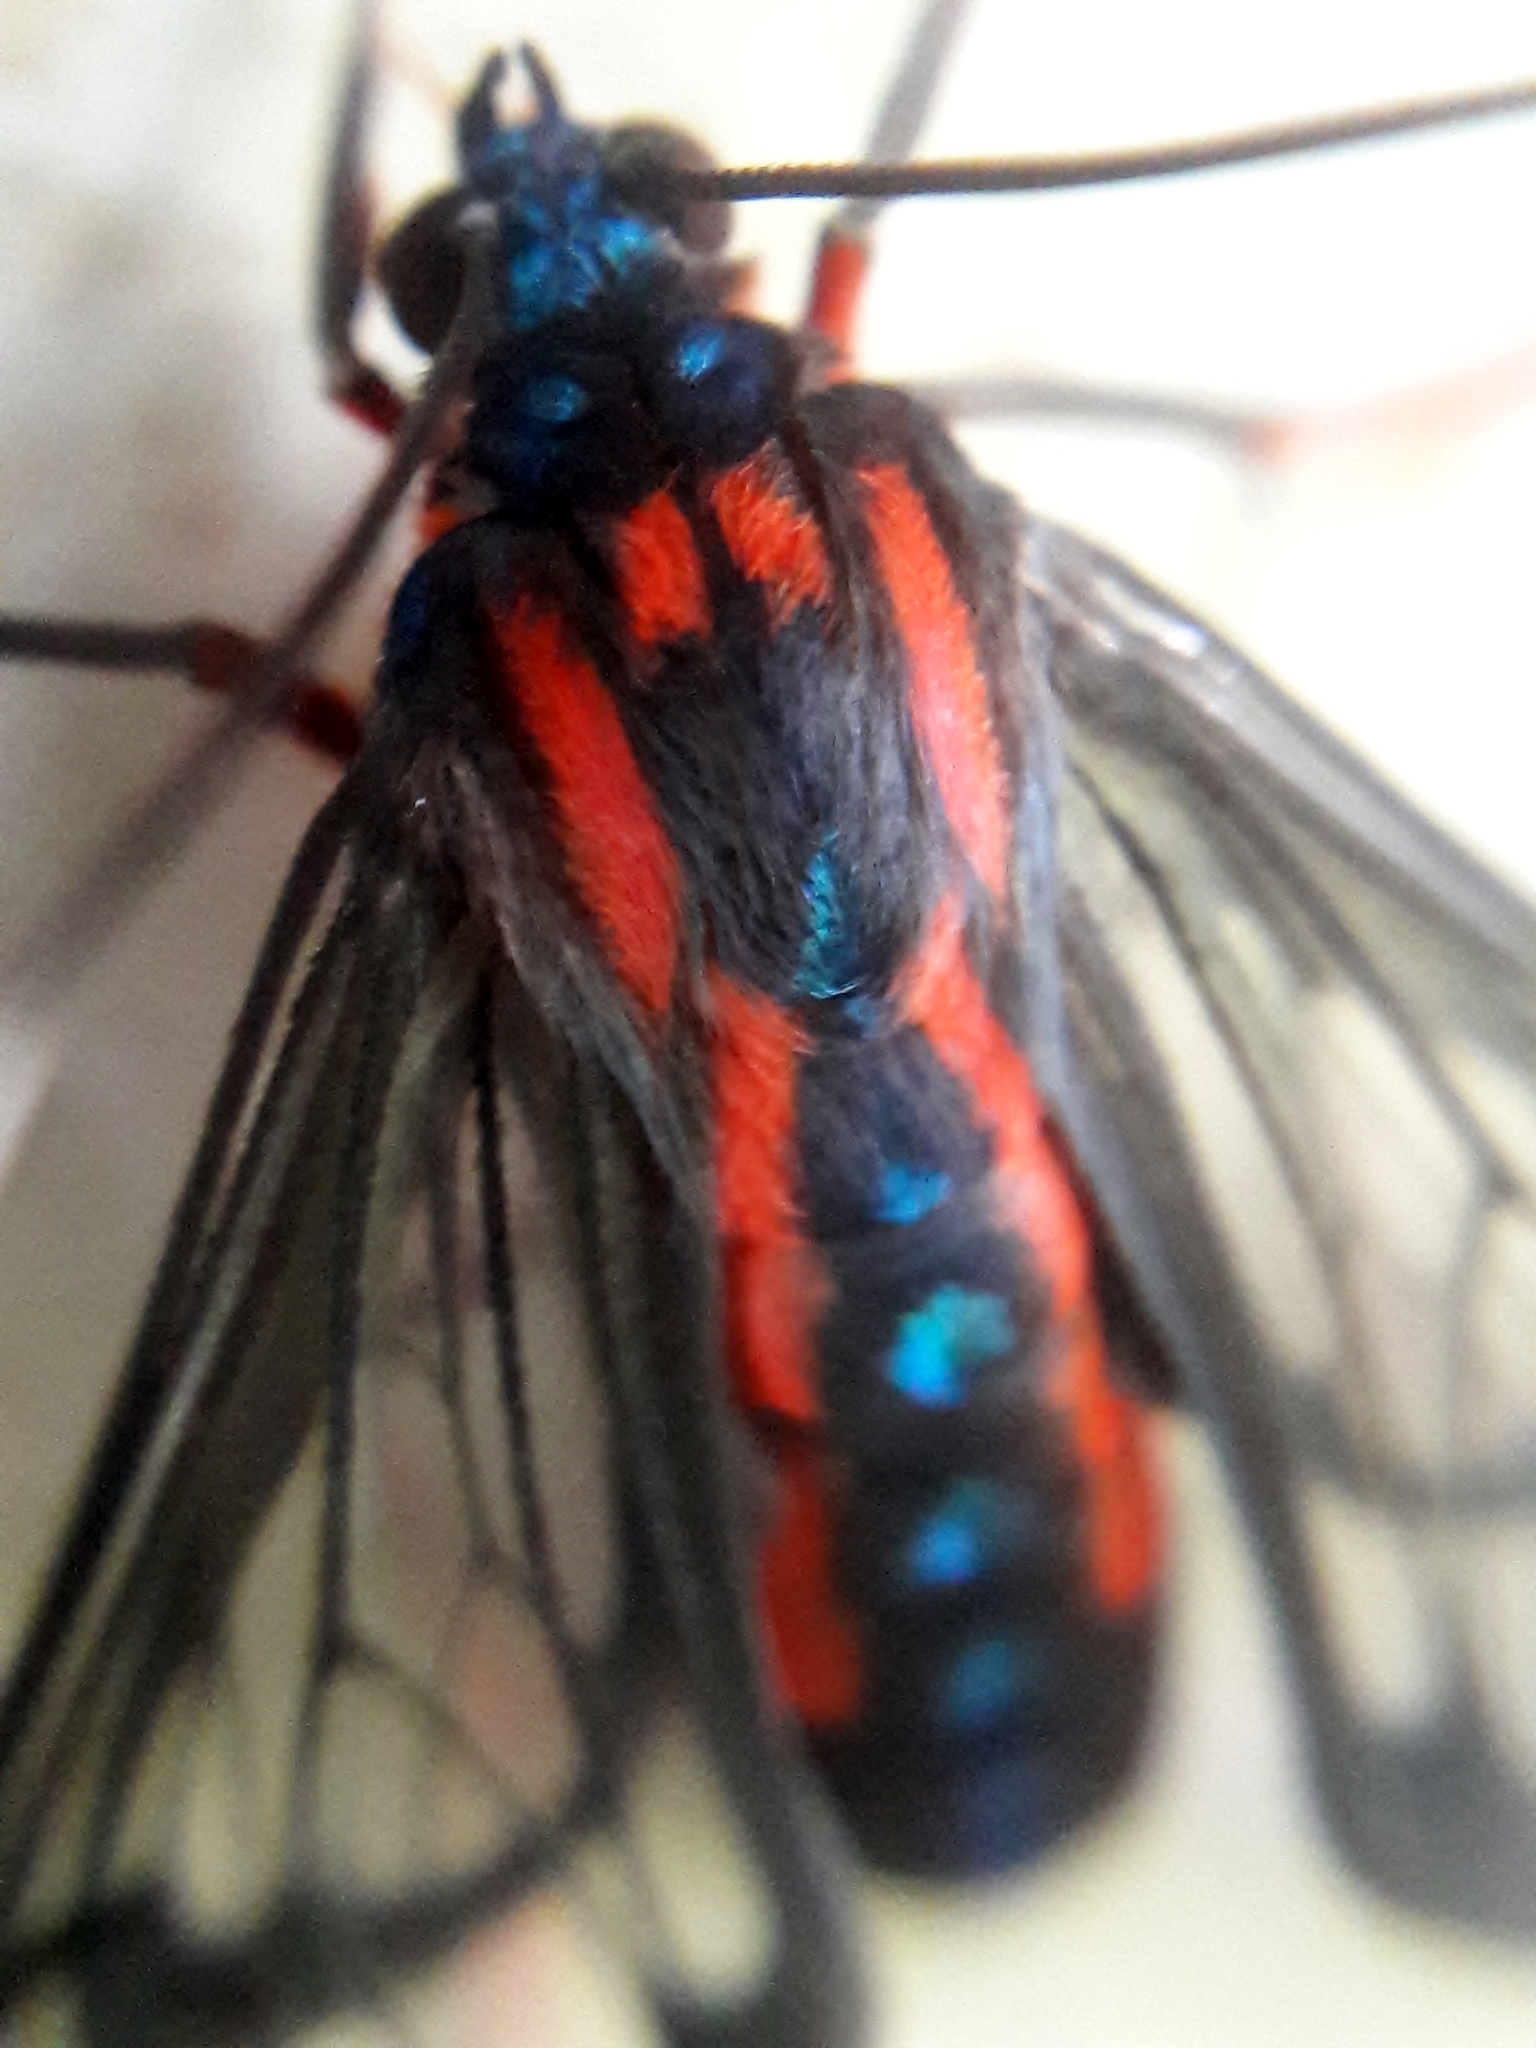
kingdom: Animalia
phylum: Arthropoda
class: Insecta
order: Lepidoptera
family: Erebidae
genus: Cosmosoma
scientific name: Cosmosoma auge
